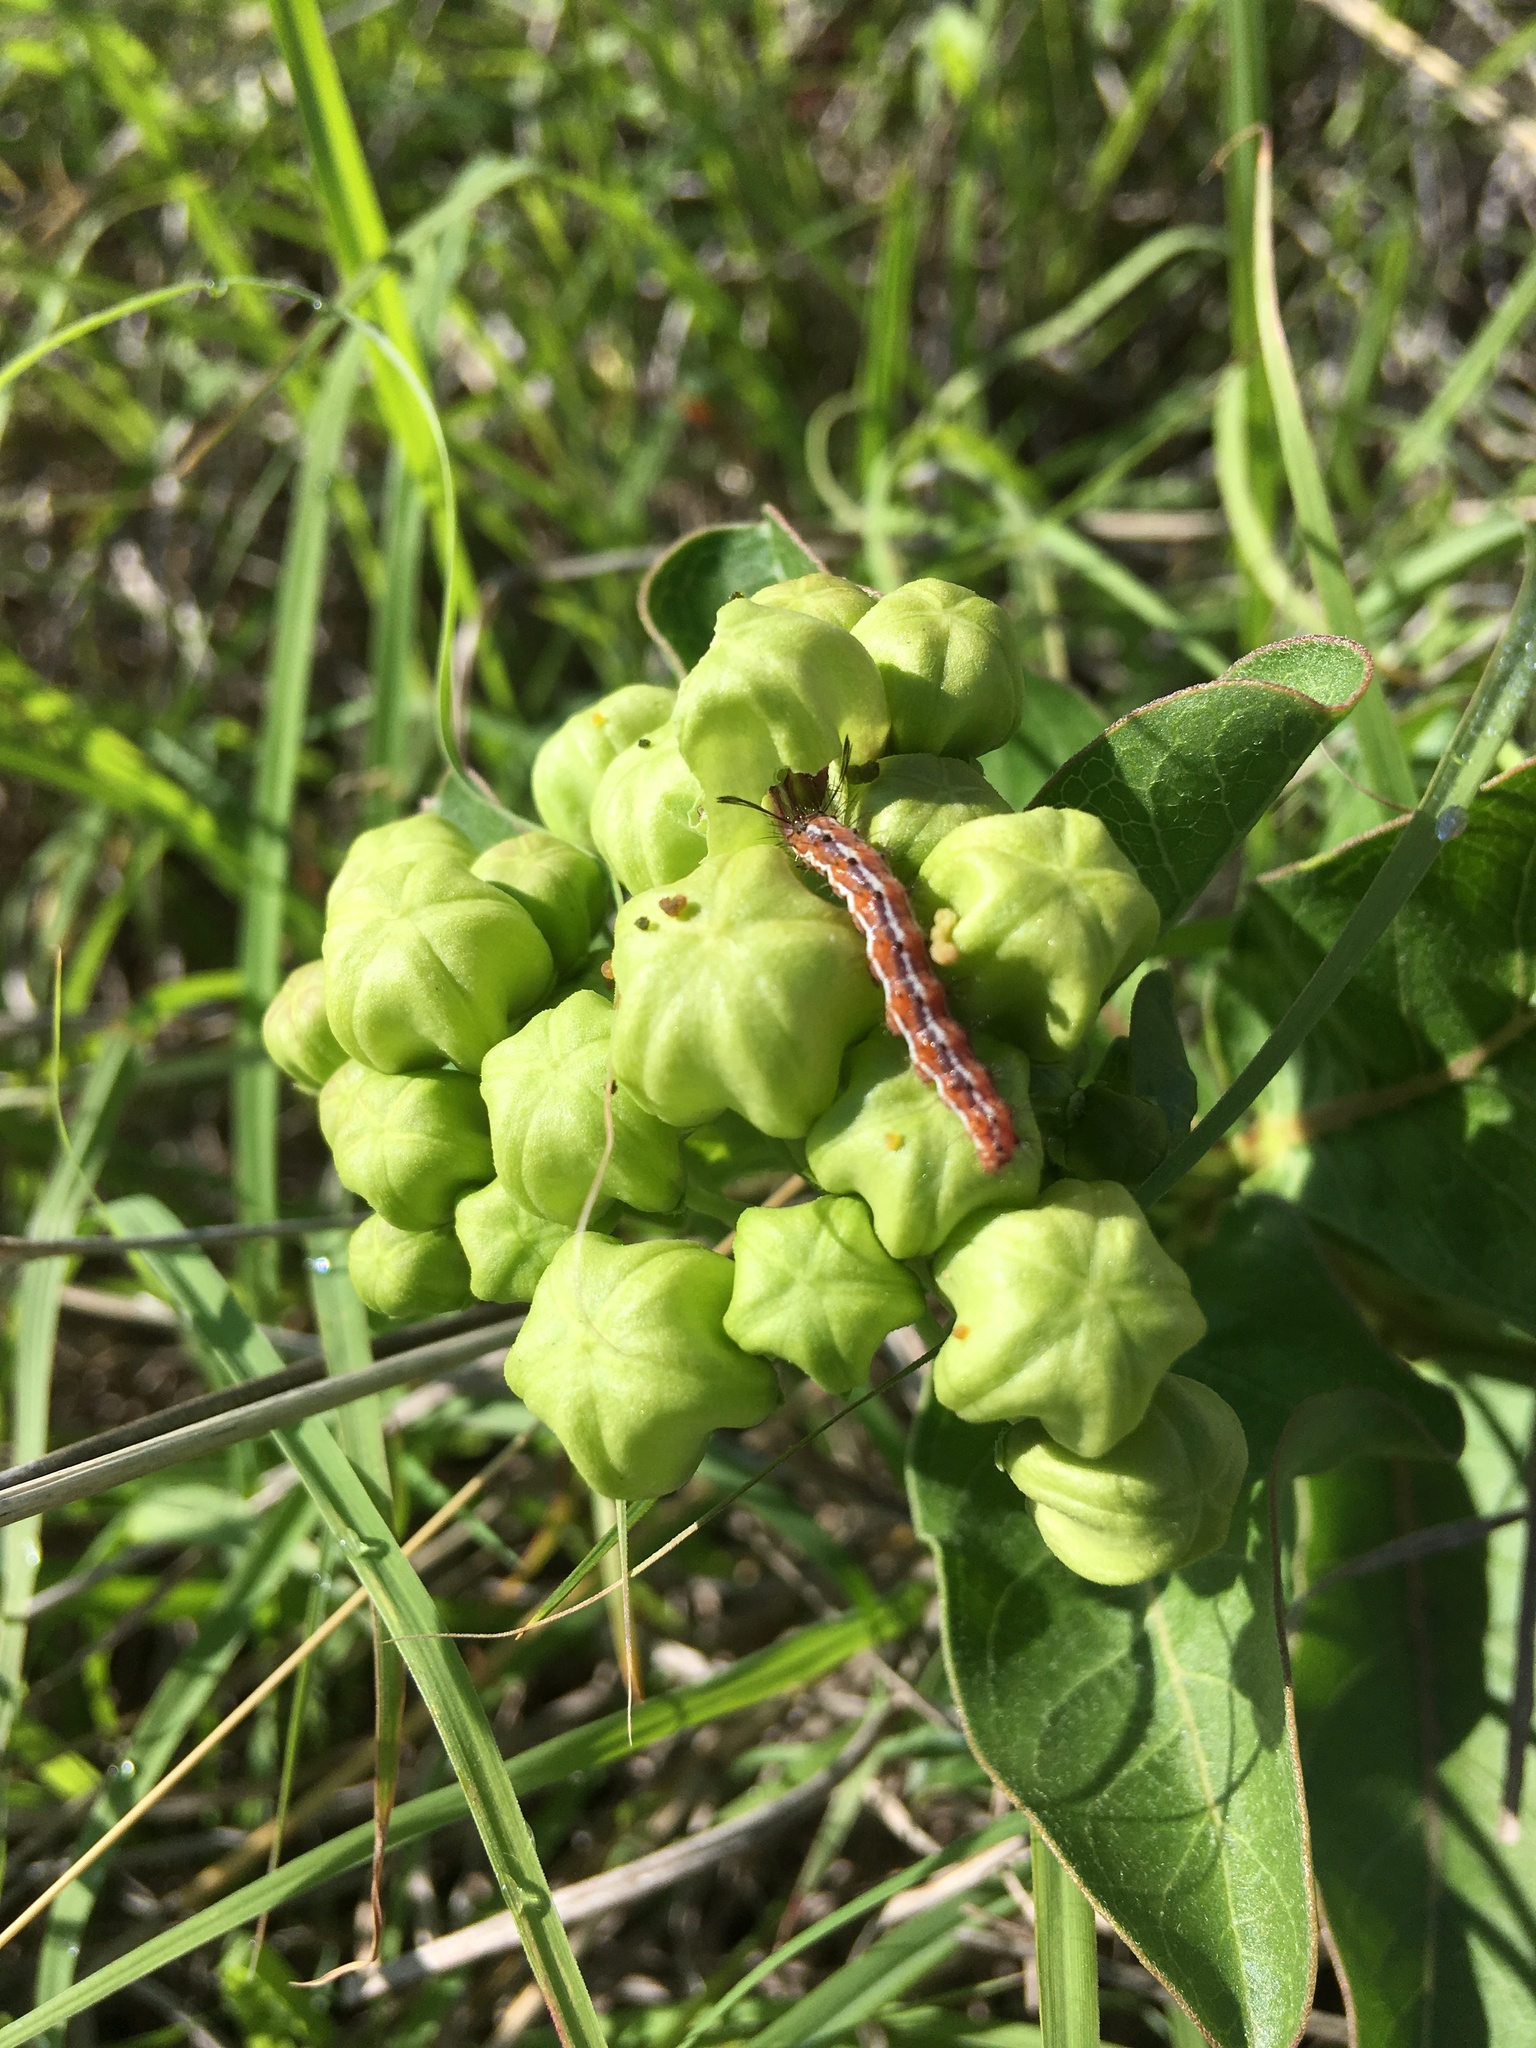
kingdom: Animalia
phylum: Arthropoda
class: Insecta
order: Lepidoptera
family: Erebidae
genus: Pagara
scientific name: Pagara simplex
